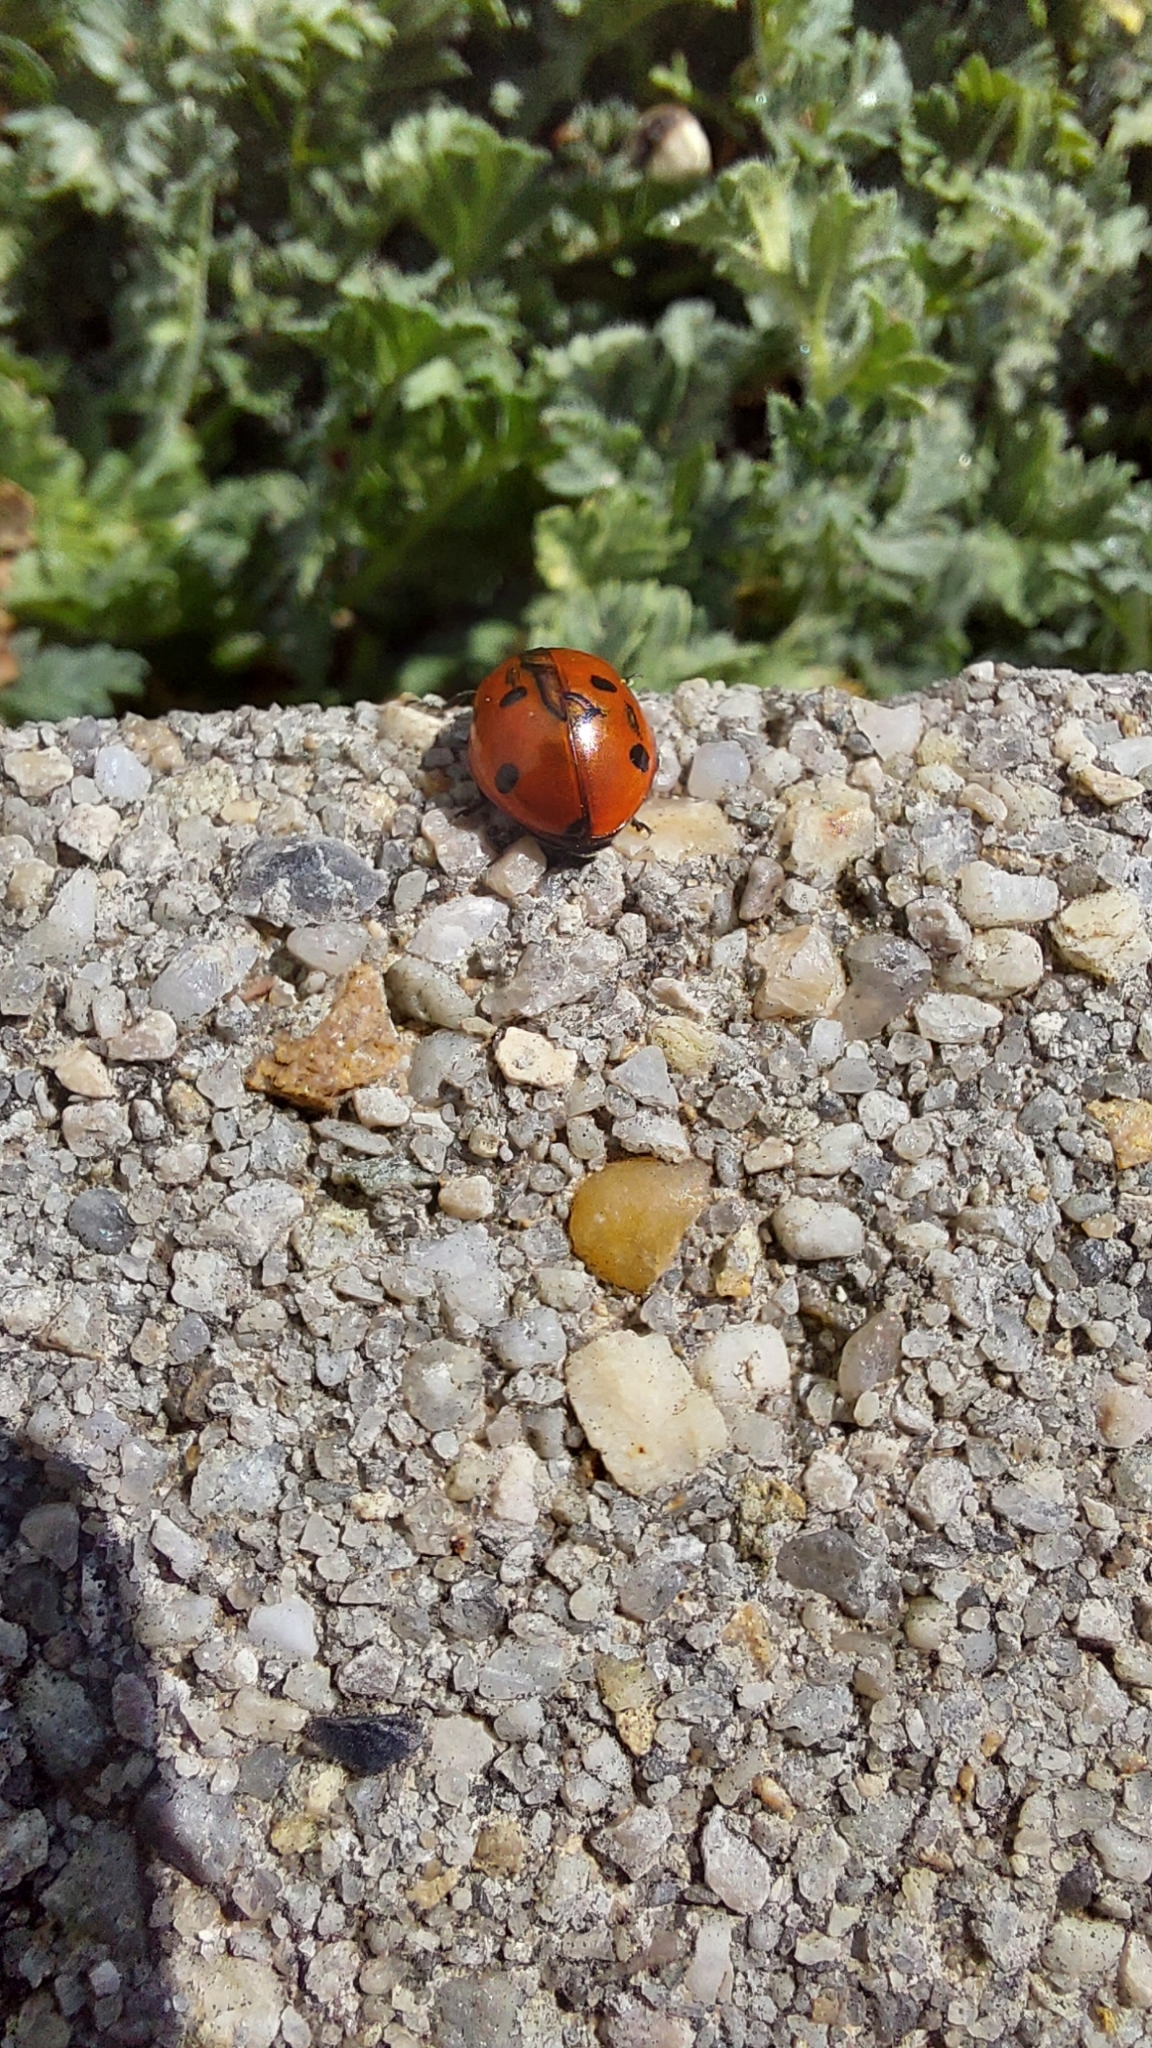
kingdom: Animalia
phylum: Arthropoda
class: Insecta
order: Coleoptera
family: Coccinellidae
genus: Coccinella
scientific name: Coccinella septempunctata
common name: Sevenspotted lady beetle
